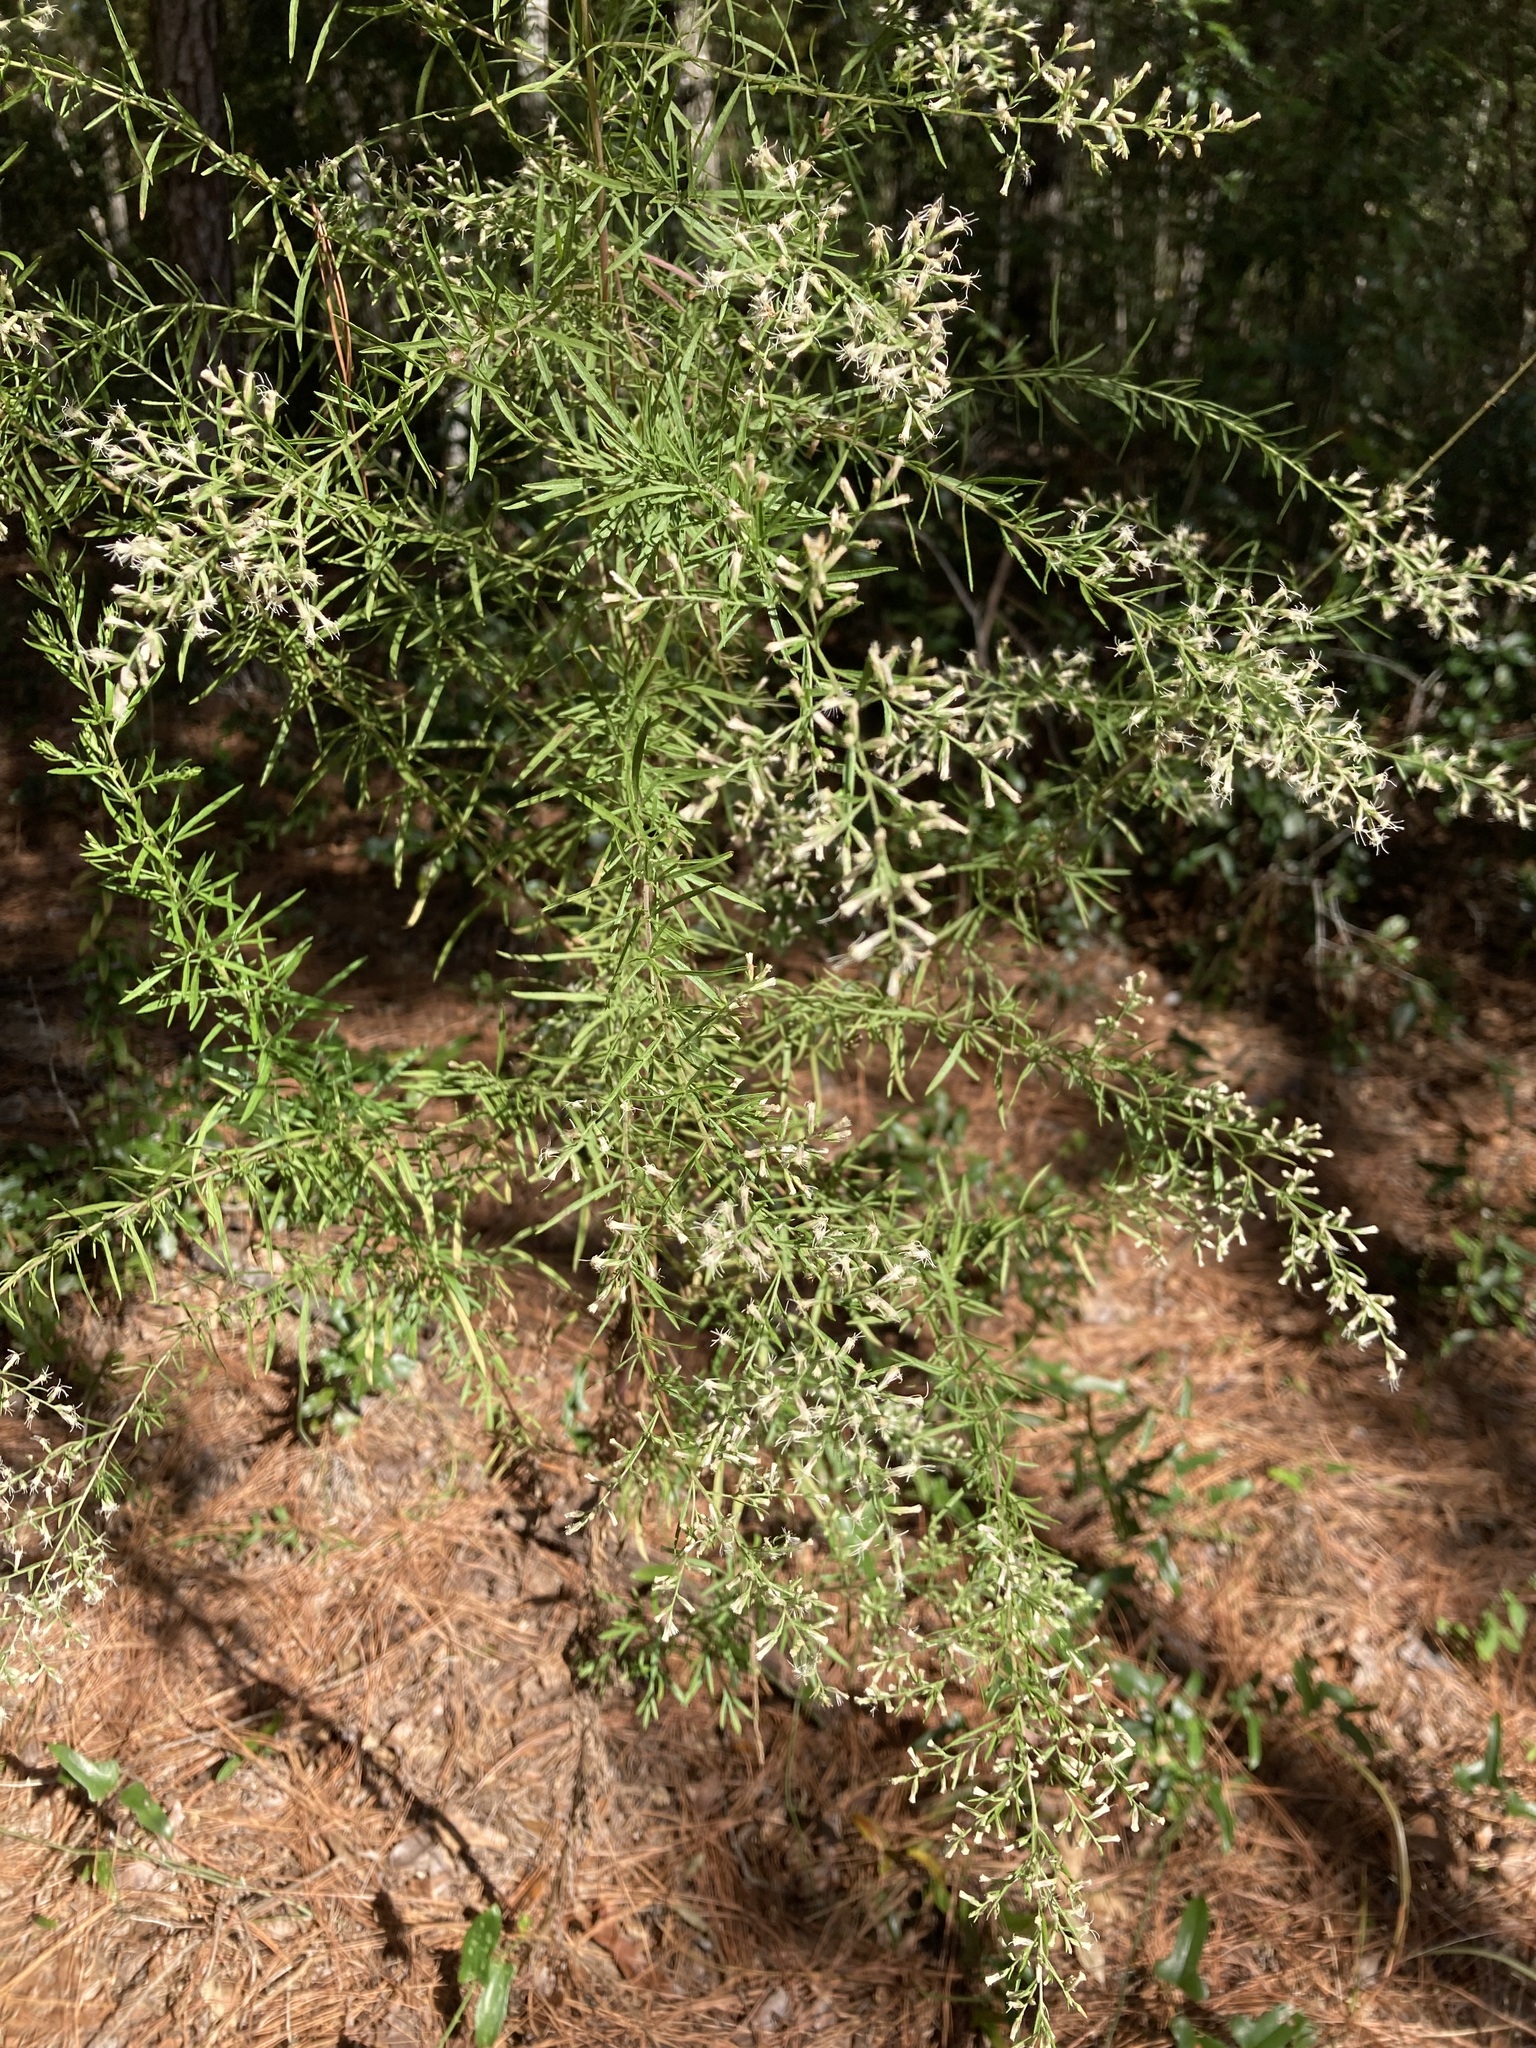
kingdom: Plantae
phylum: Tracheophyta
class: Magnoliopsida
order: Asterales
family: Asteraceae
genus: Eupatorium
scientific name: Eupatorium compositifolium
